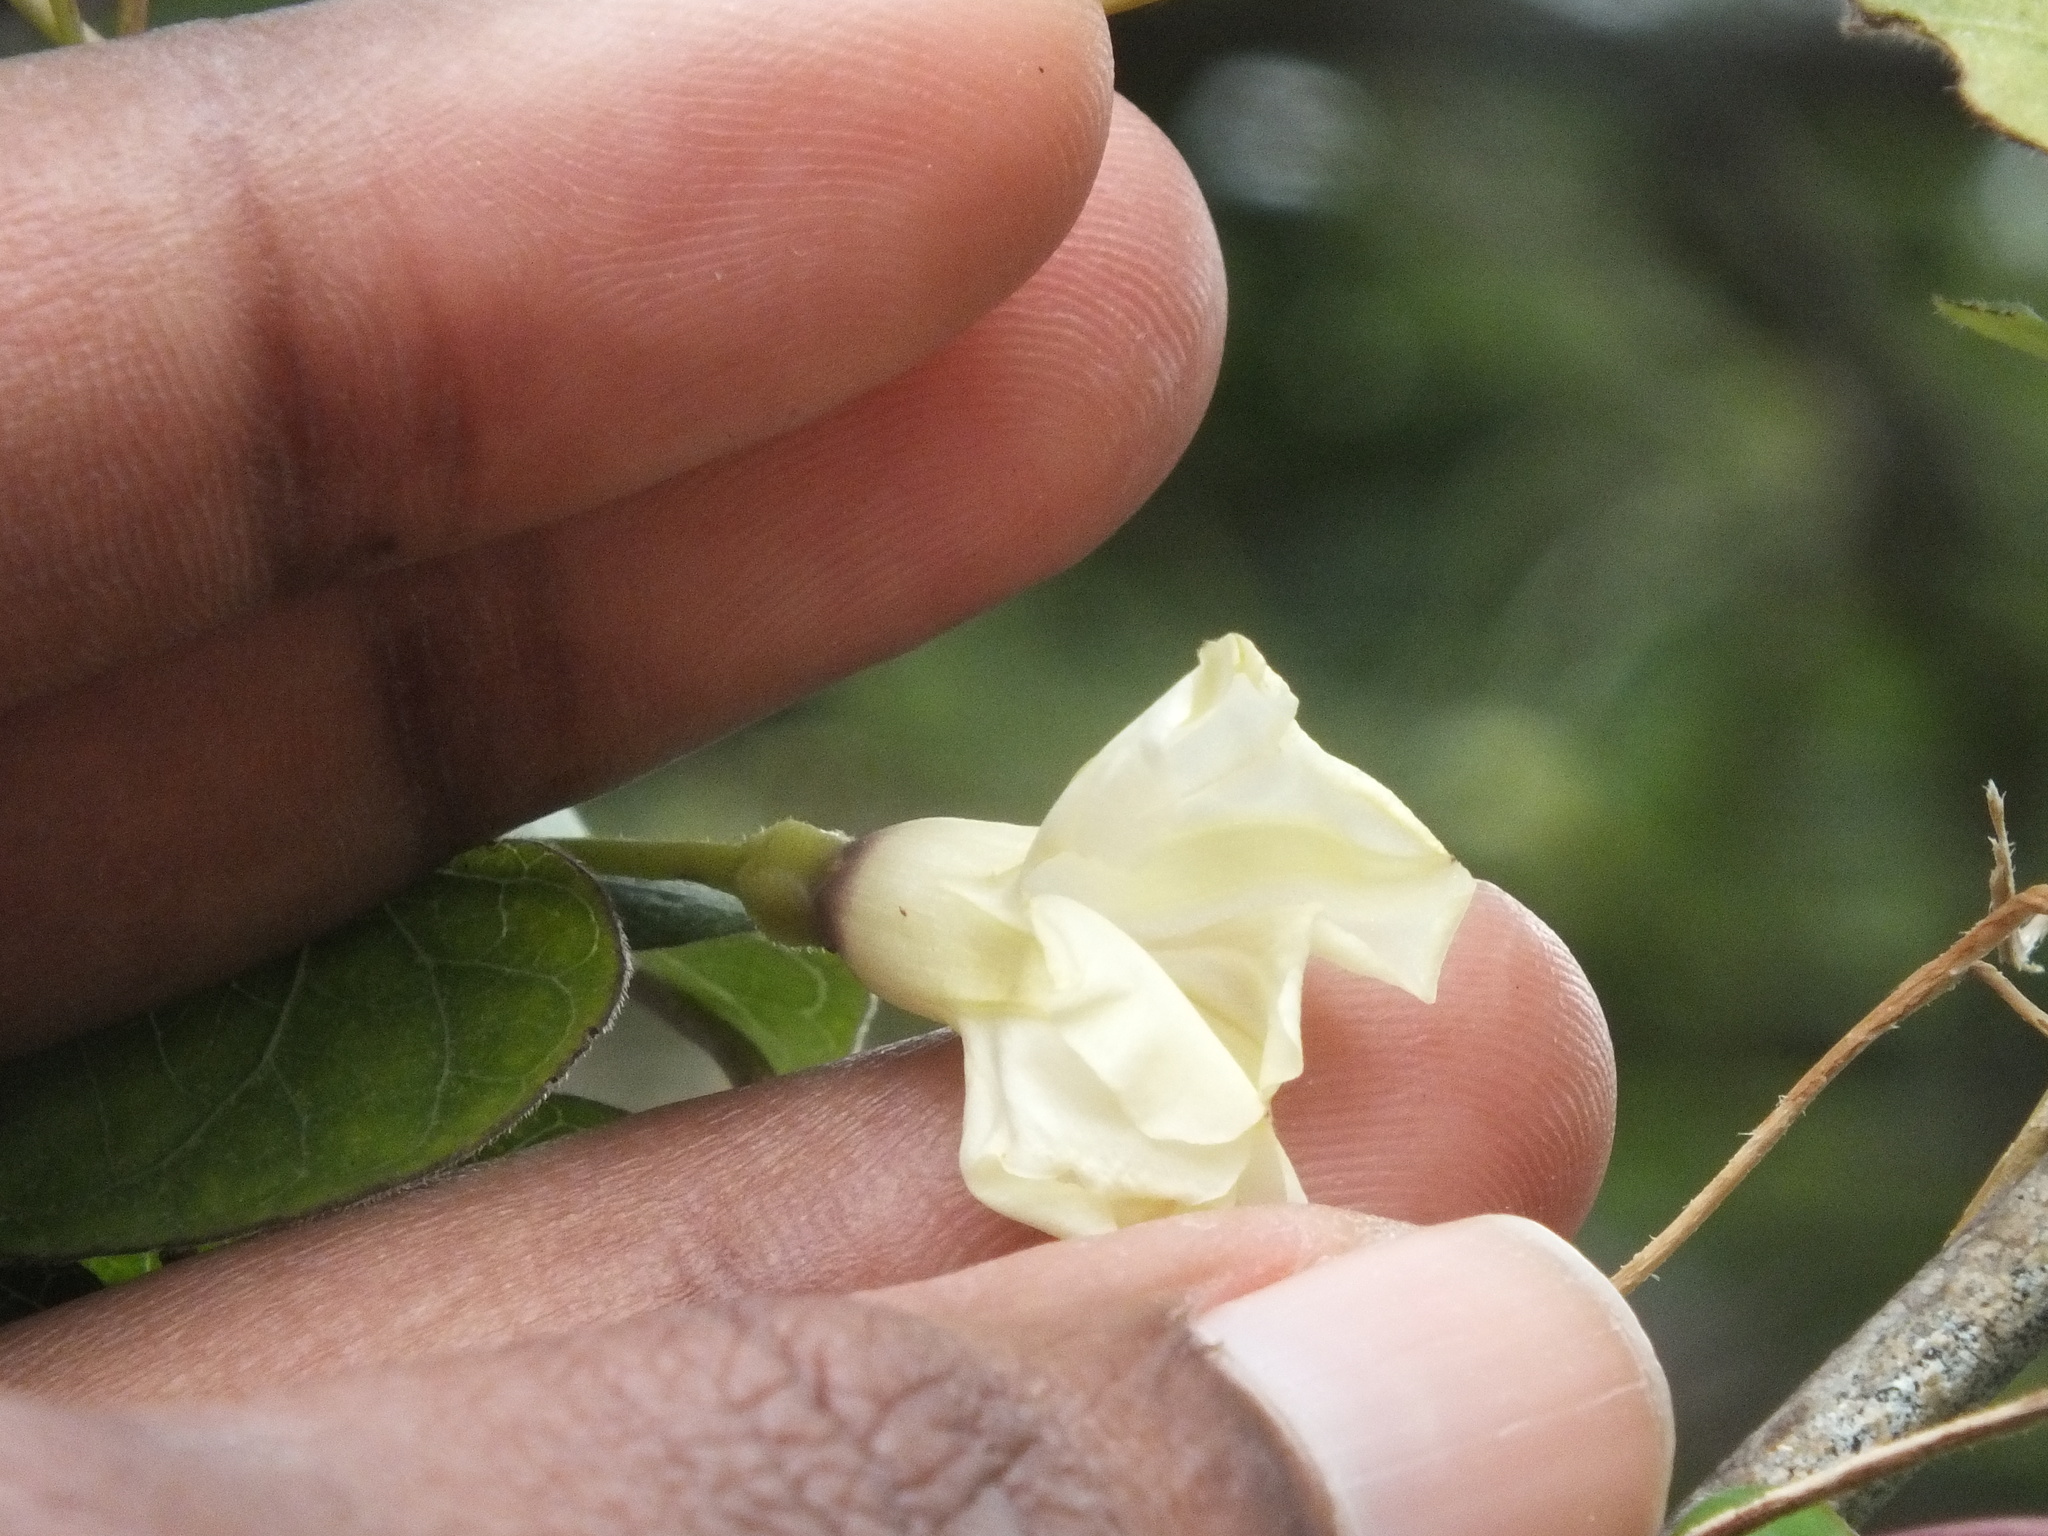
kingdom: Plantae
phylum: Tracheophyta
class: Magnoliopsida
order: Solanales
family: Convolvulaceae
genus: Ipomoea
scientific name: Ipomoea obscura
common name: Obscure morning-glory
